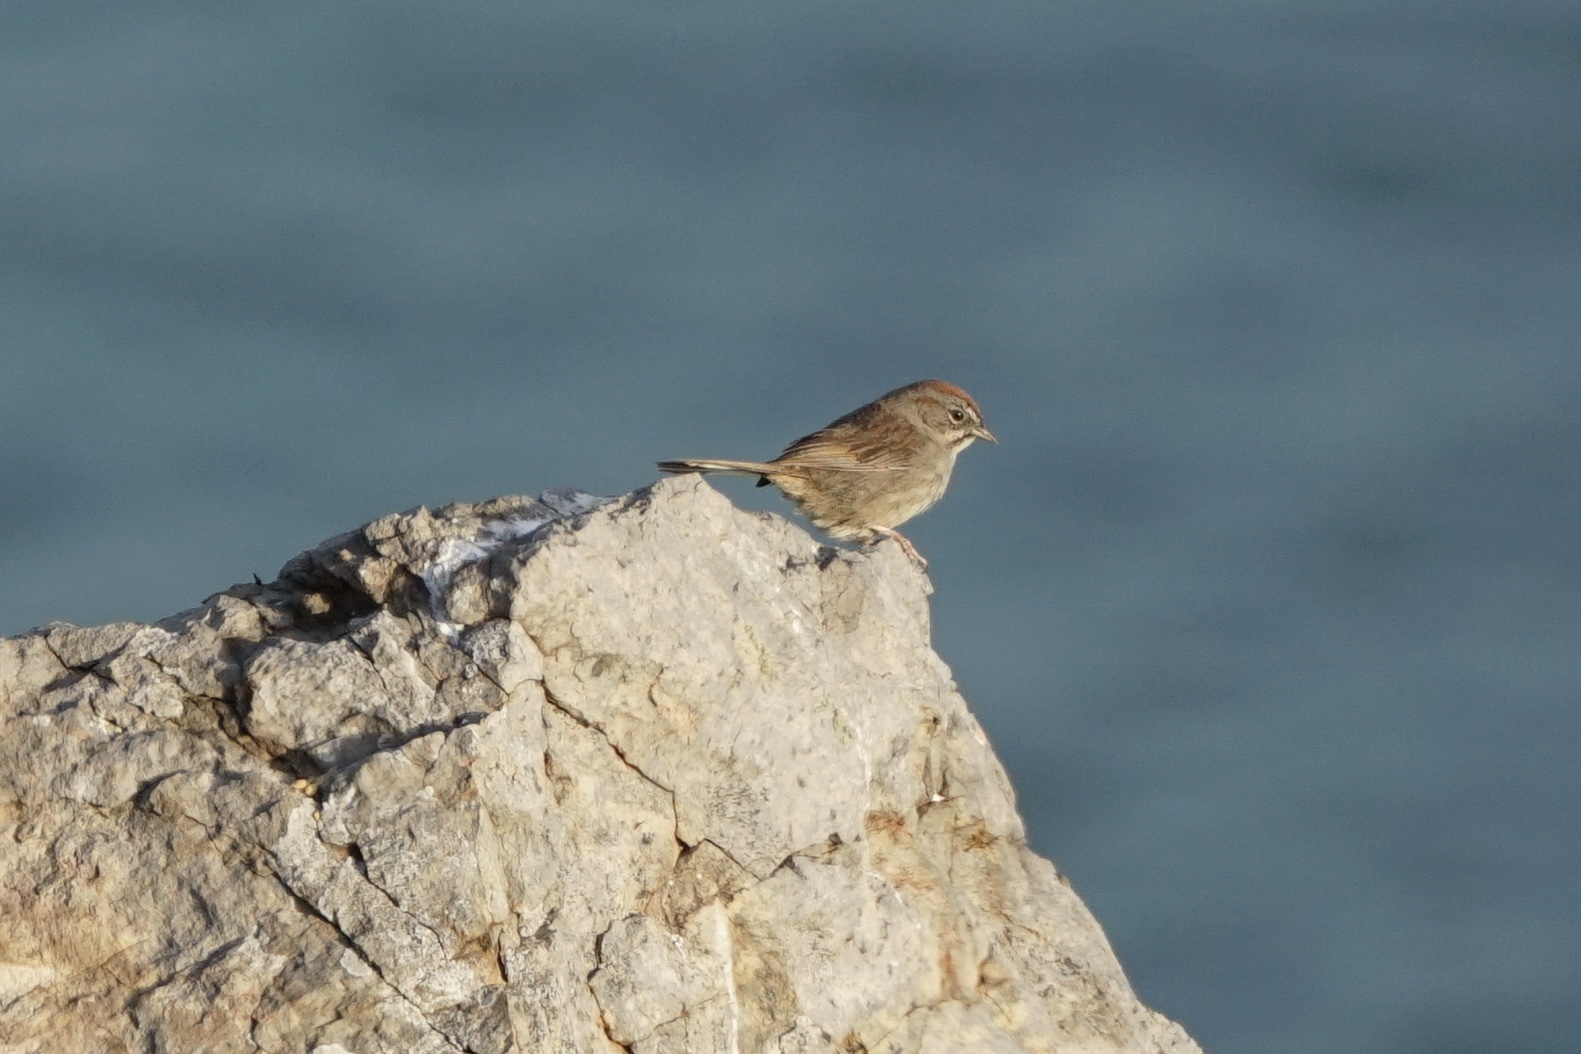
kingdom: Animalia
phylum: Chordata
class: Aves
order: Passeriformes
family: Passerellidae
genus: Aimophila
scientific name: Aimophila ruficeps
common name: Rufous-crowned sparrow
